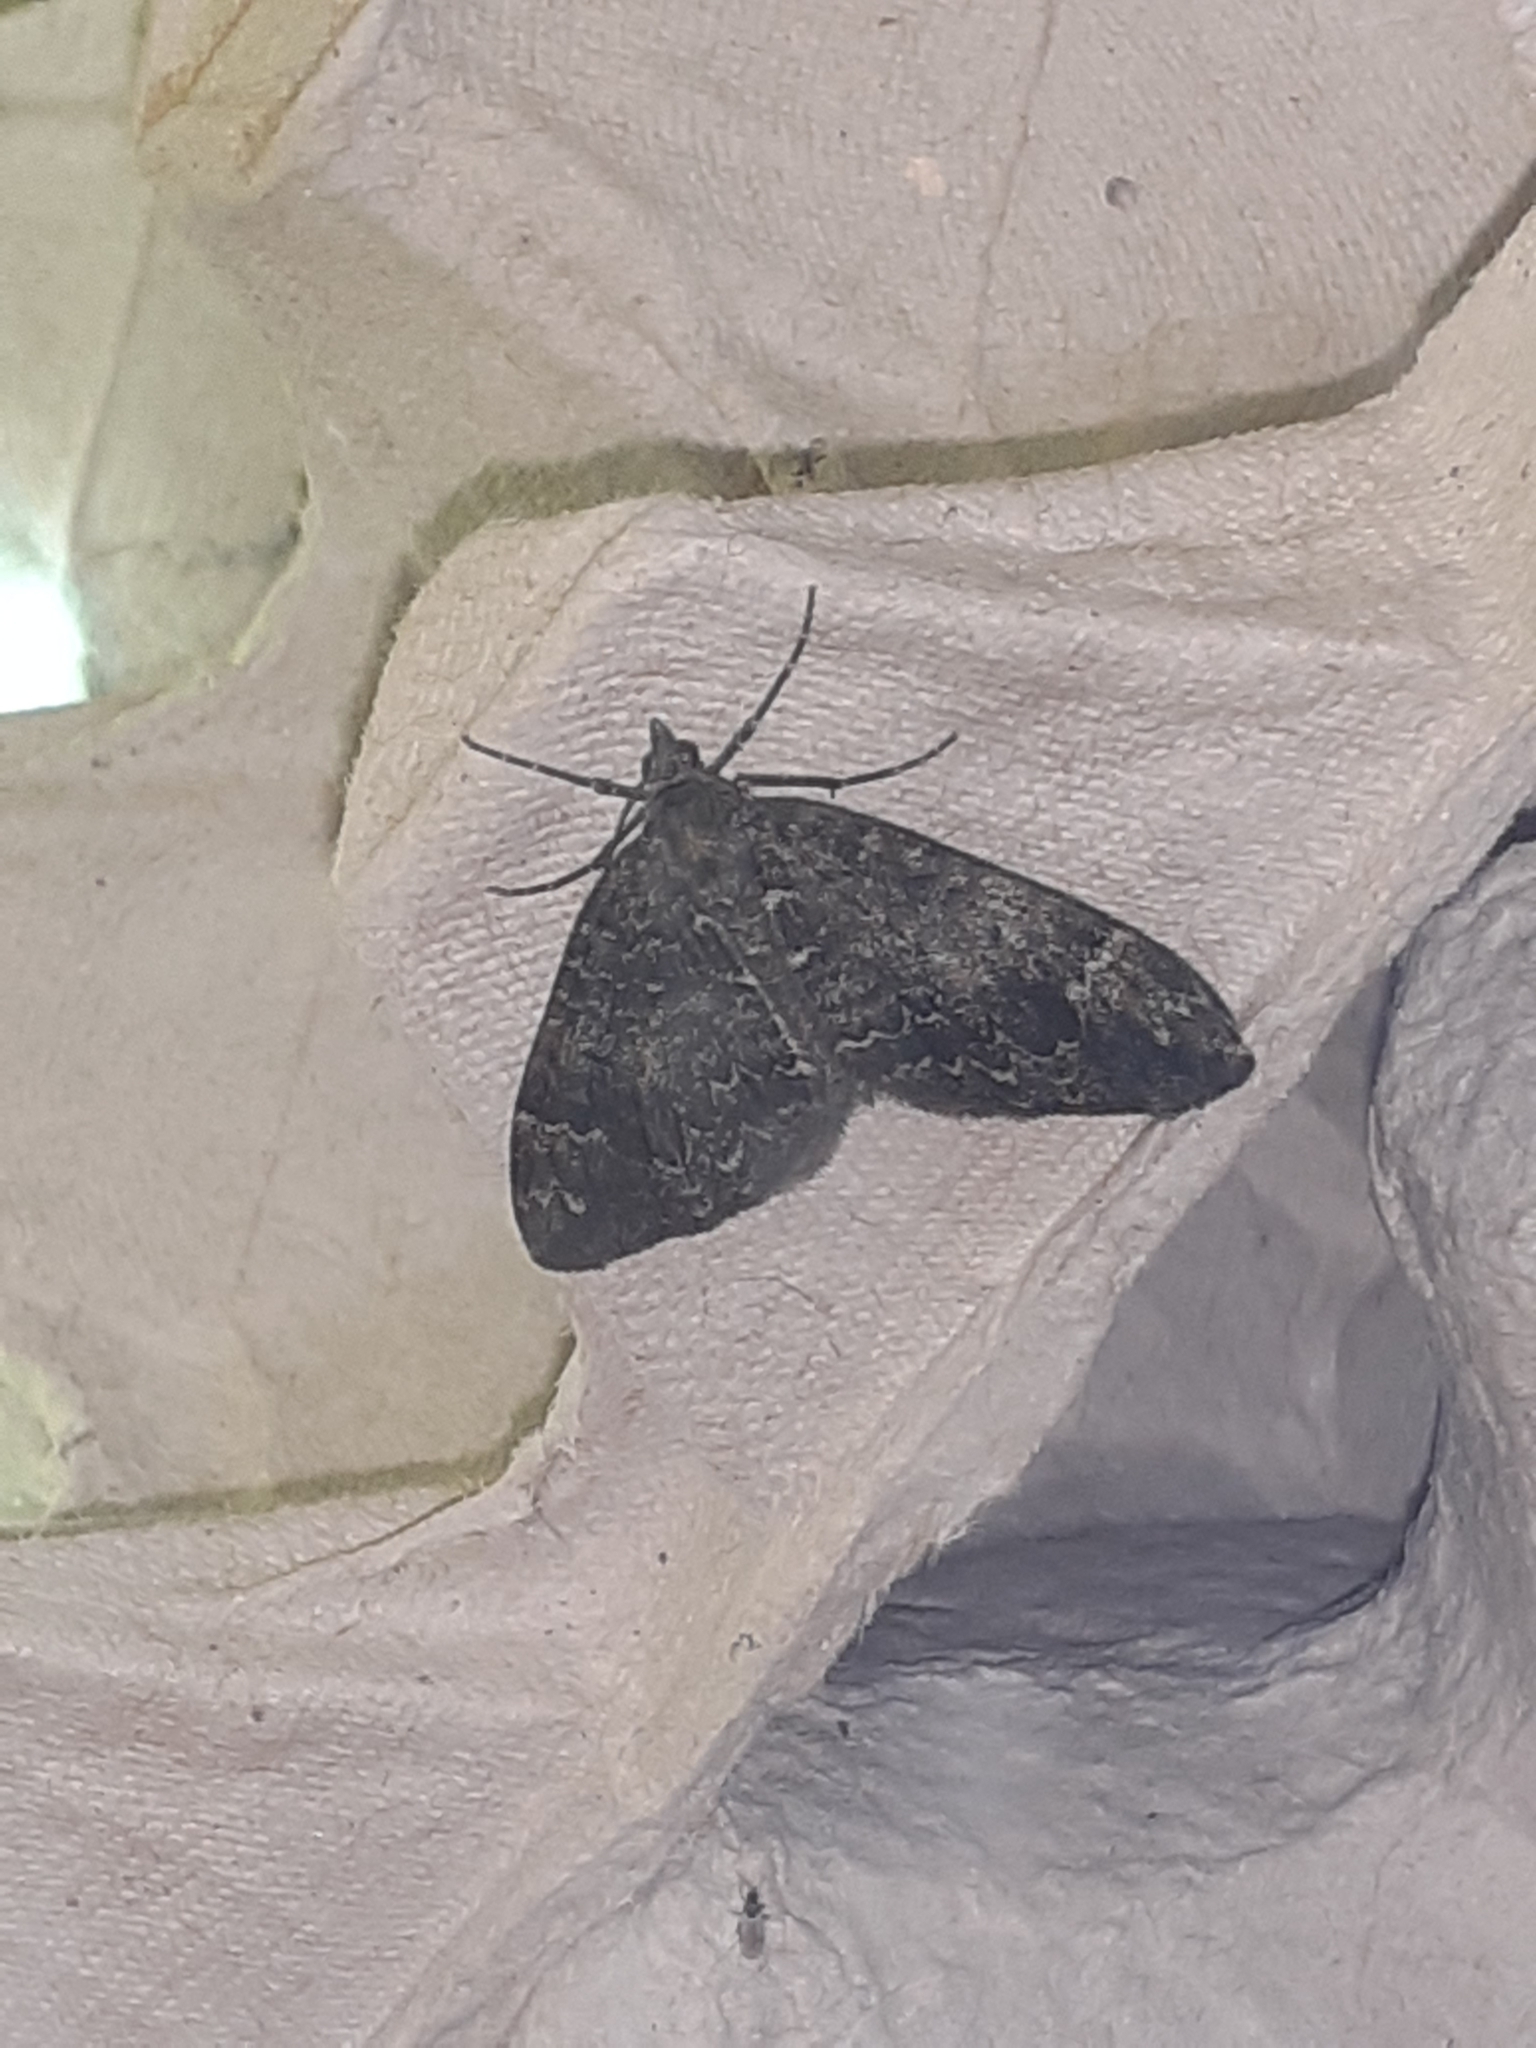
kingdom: Animalia
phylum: Arthropoda
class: Insecta
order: Lepidoptera
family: Geometridae
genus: Dysstroma
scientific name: Dysstroma truncata
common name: Common marbled carpet
